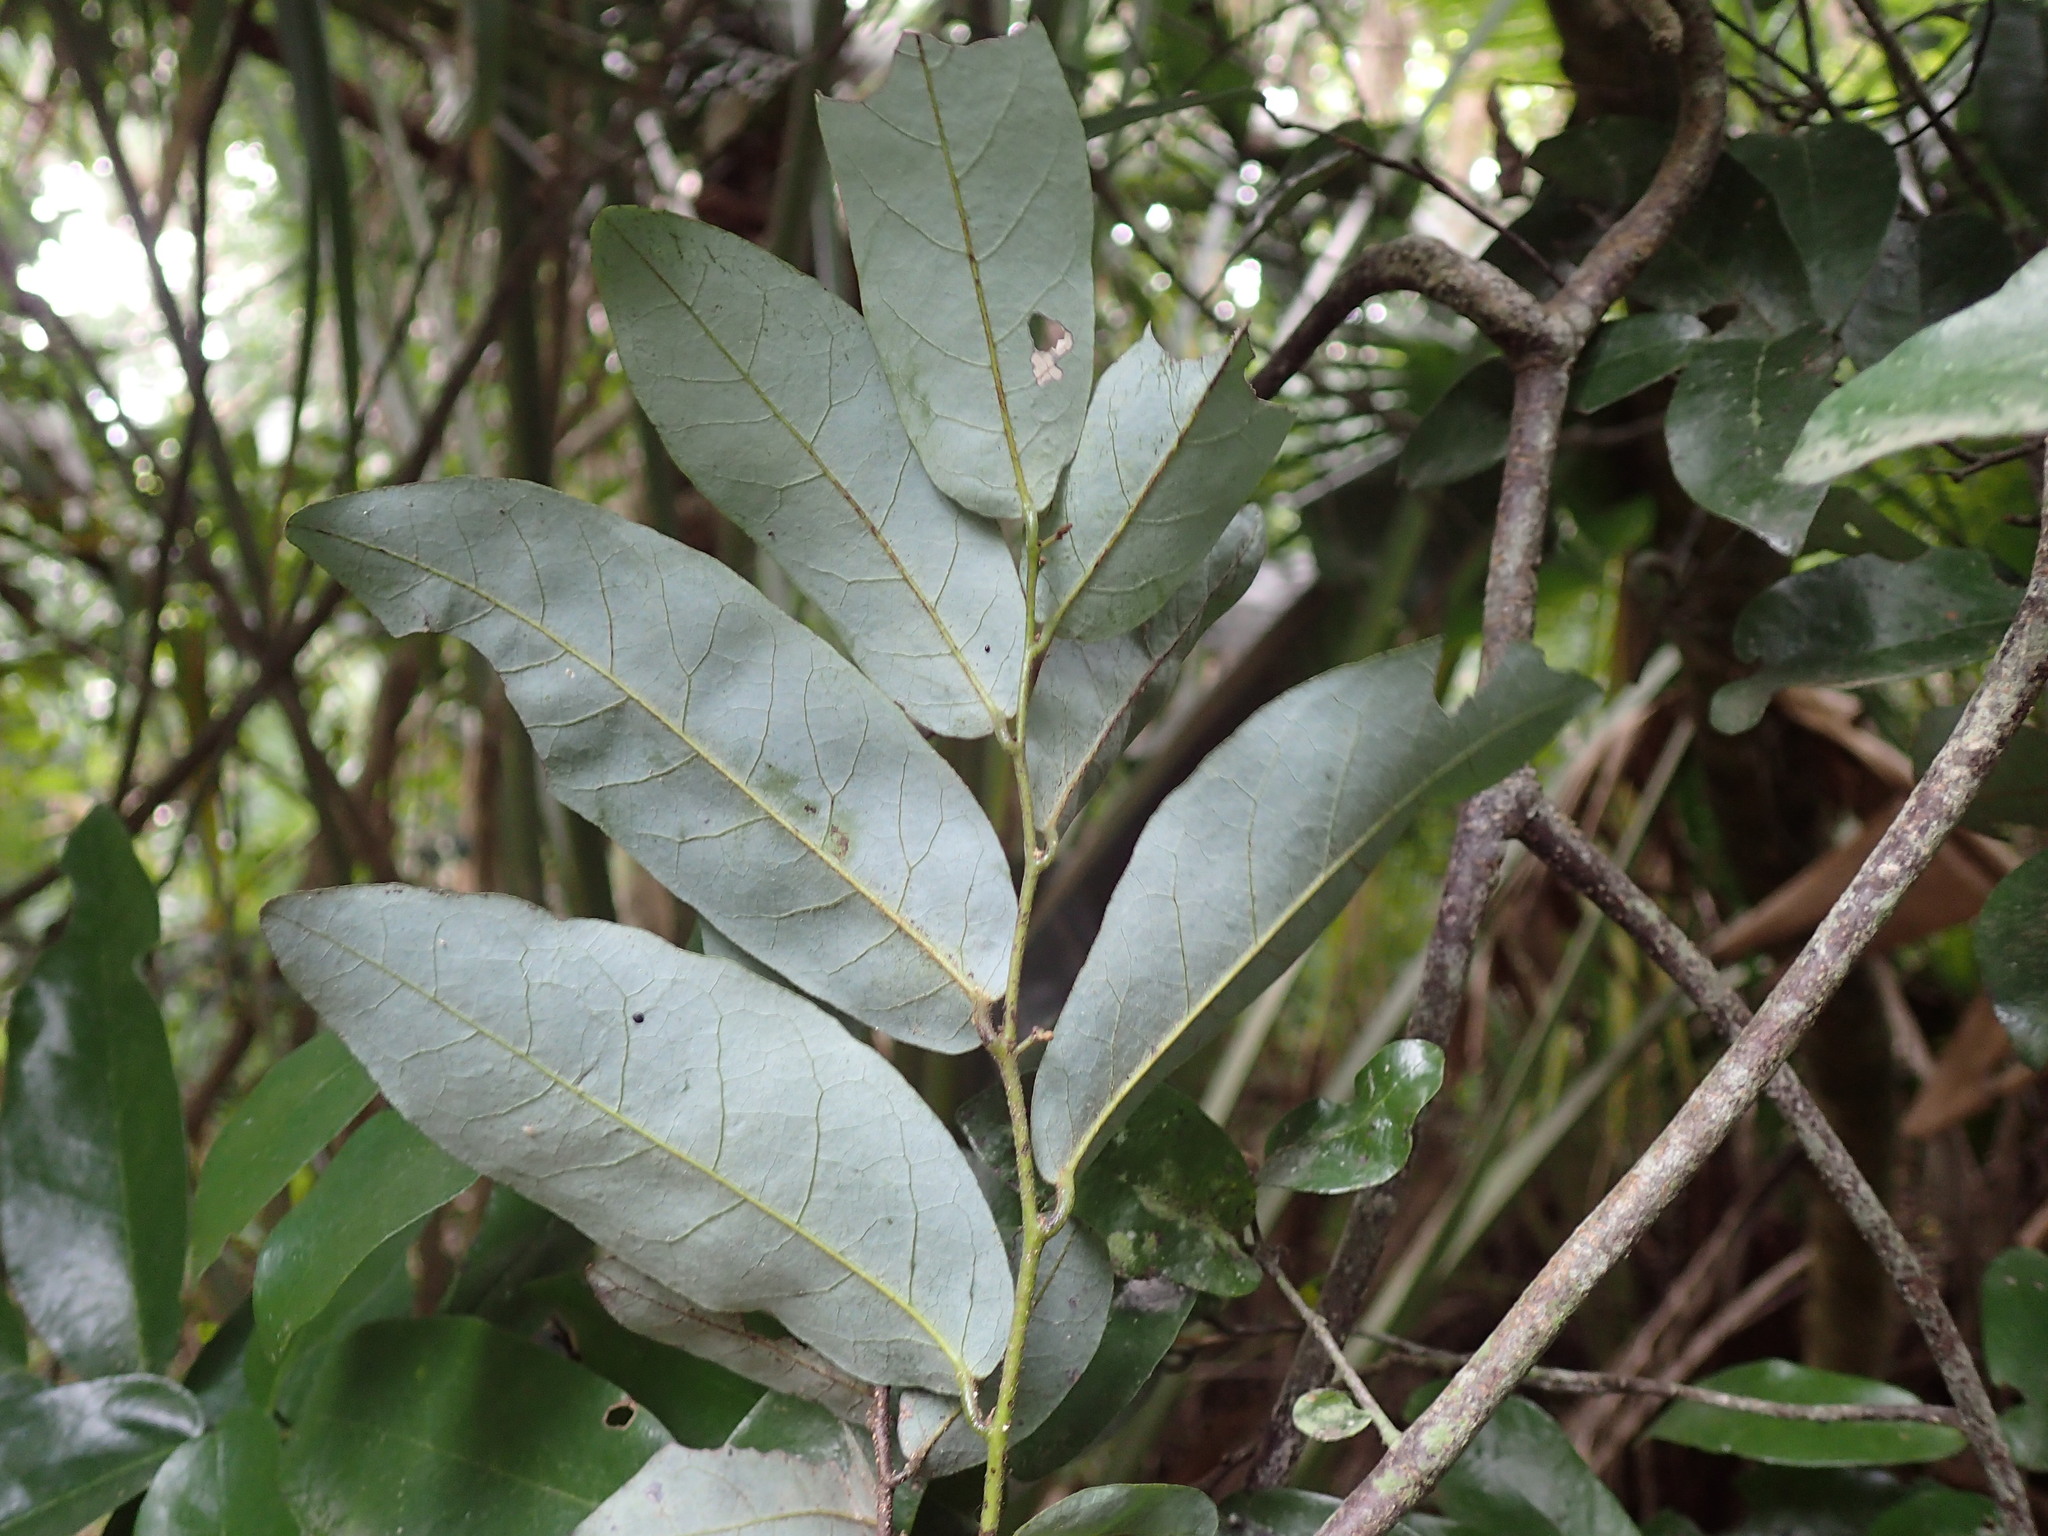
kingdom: Plantae
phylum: Tracheophyta
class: Magnoliopsida
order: Magnoliales
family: Annonaceae
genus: Monanthotaxis
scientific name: Monanthotaxis caffra
